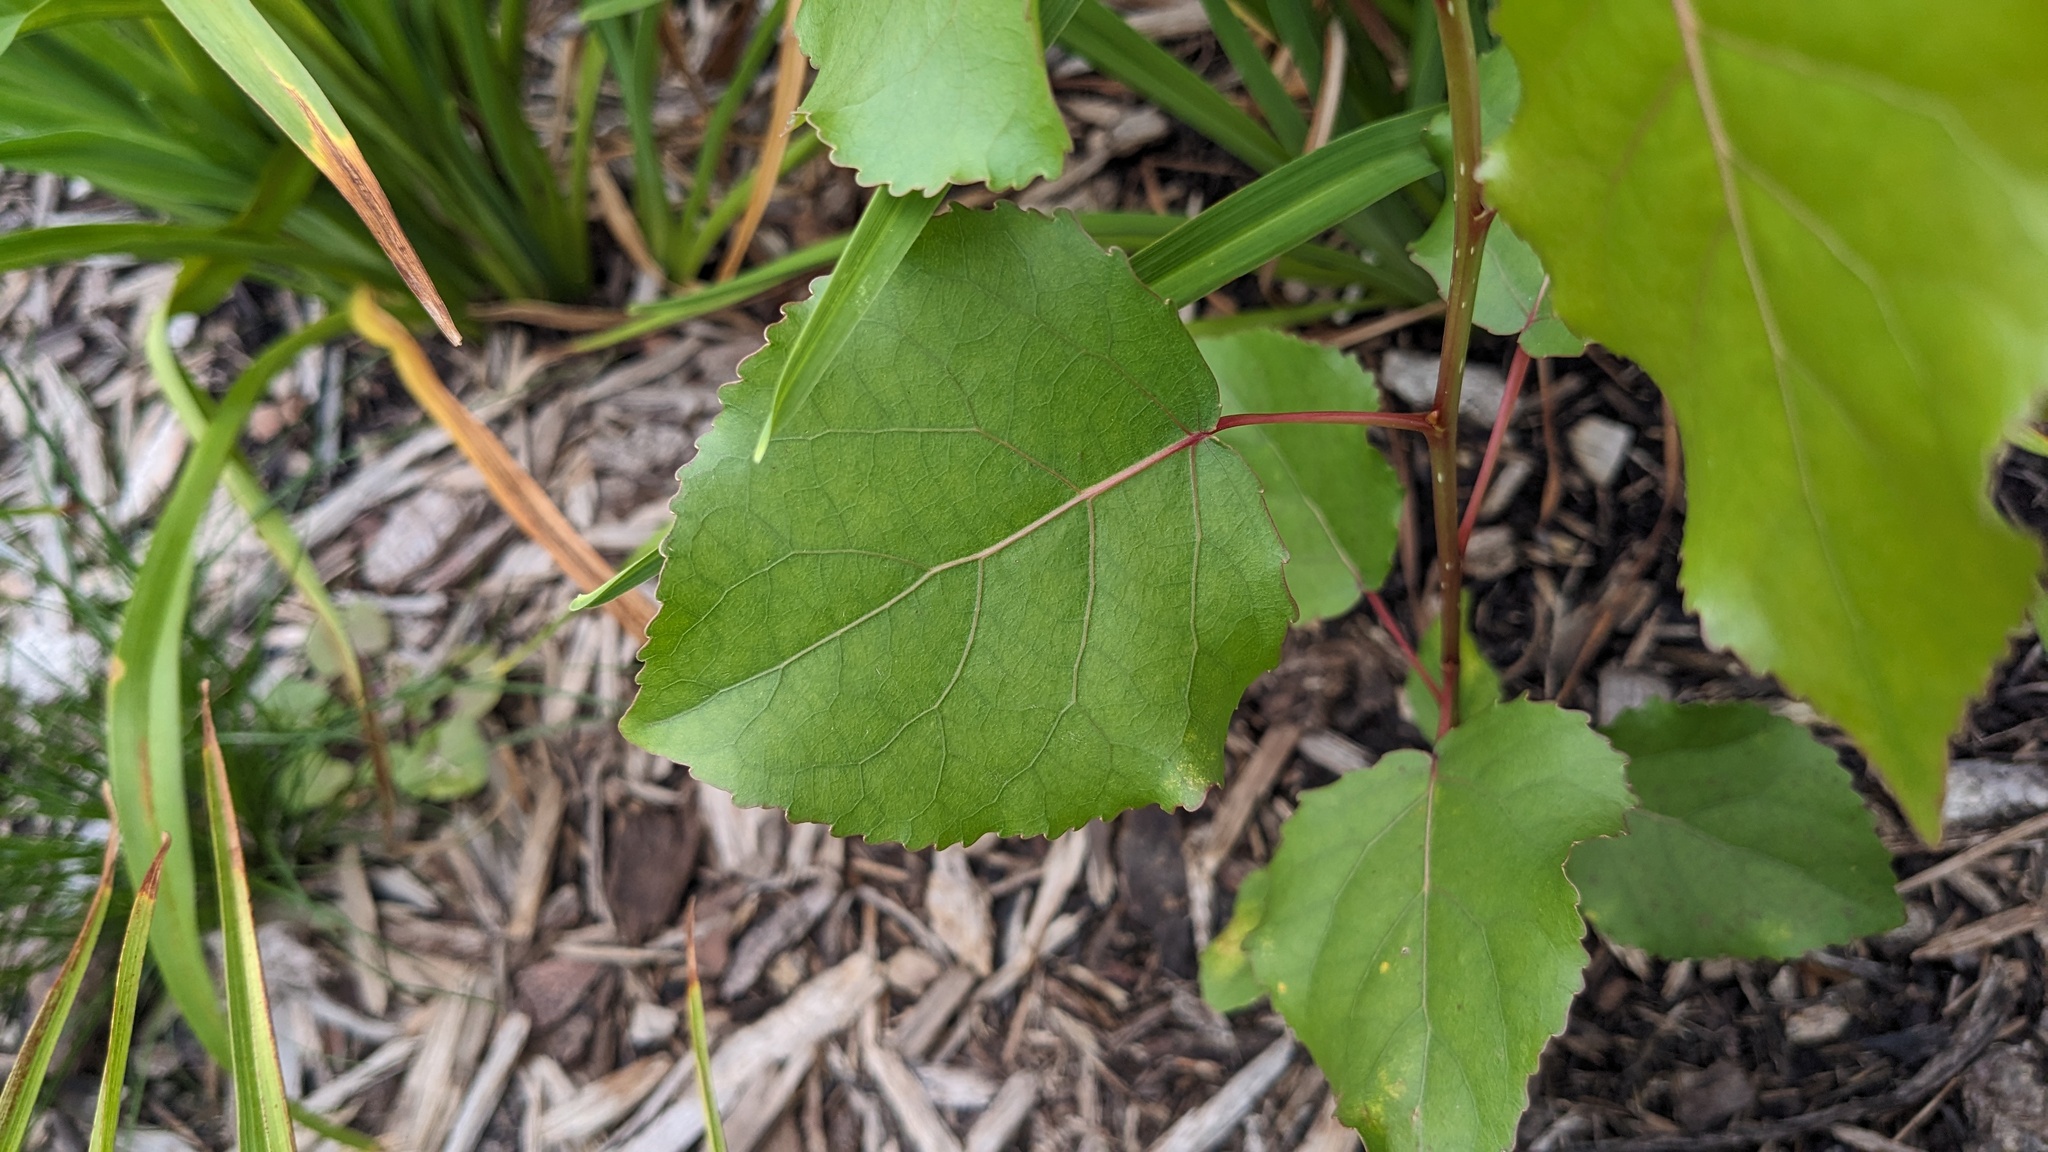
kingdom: Plantae
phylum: Tracheophyta
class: Magnoliopsida
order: Malpighiales
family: Salicaceae
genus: Populus
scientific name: Populus deltoides
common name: Eastern cottonwood
